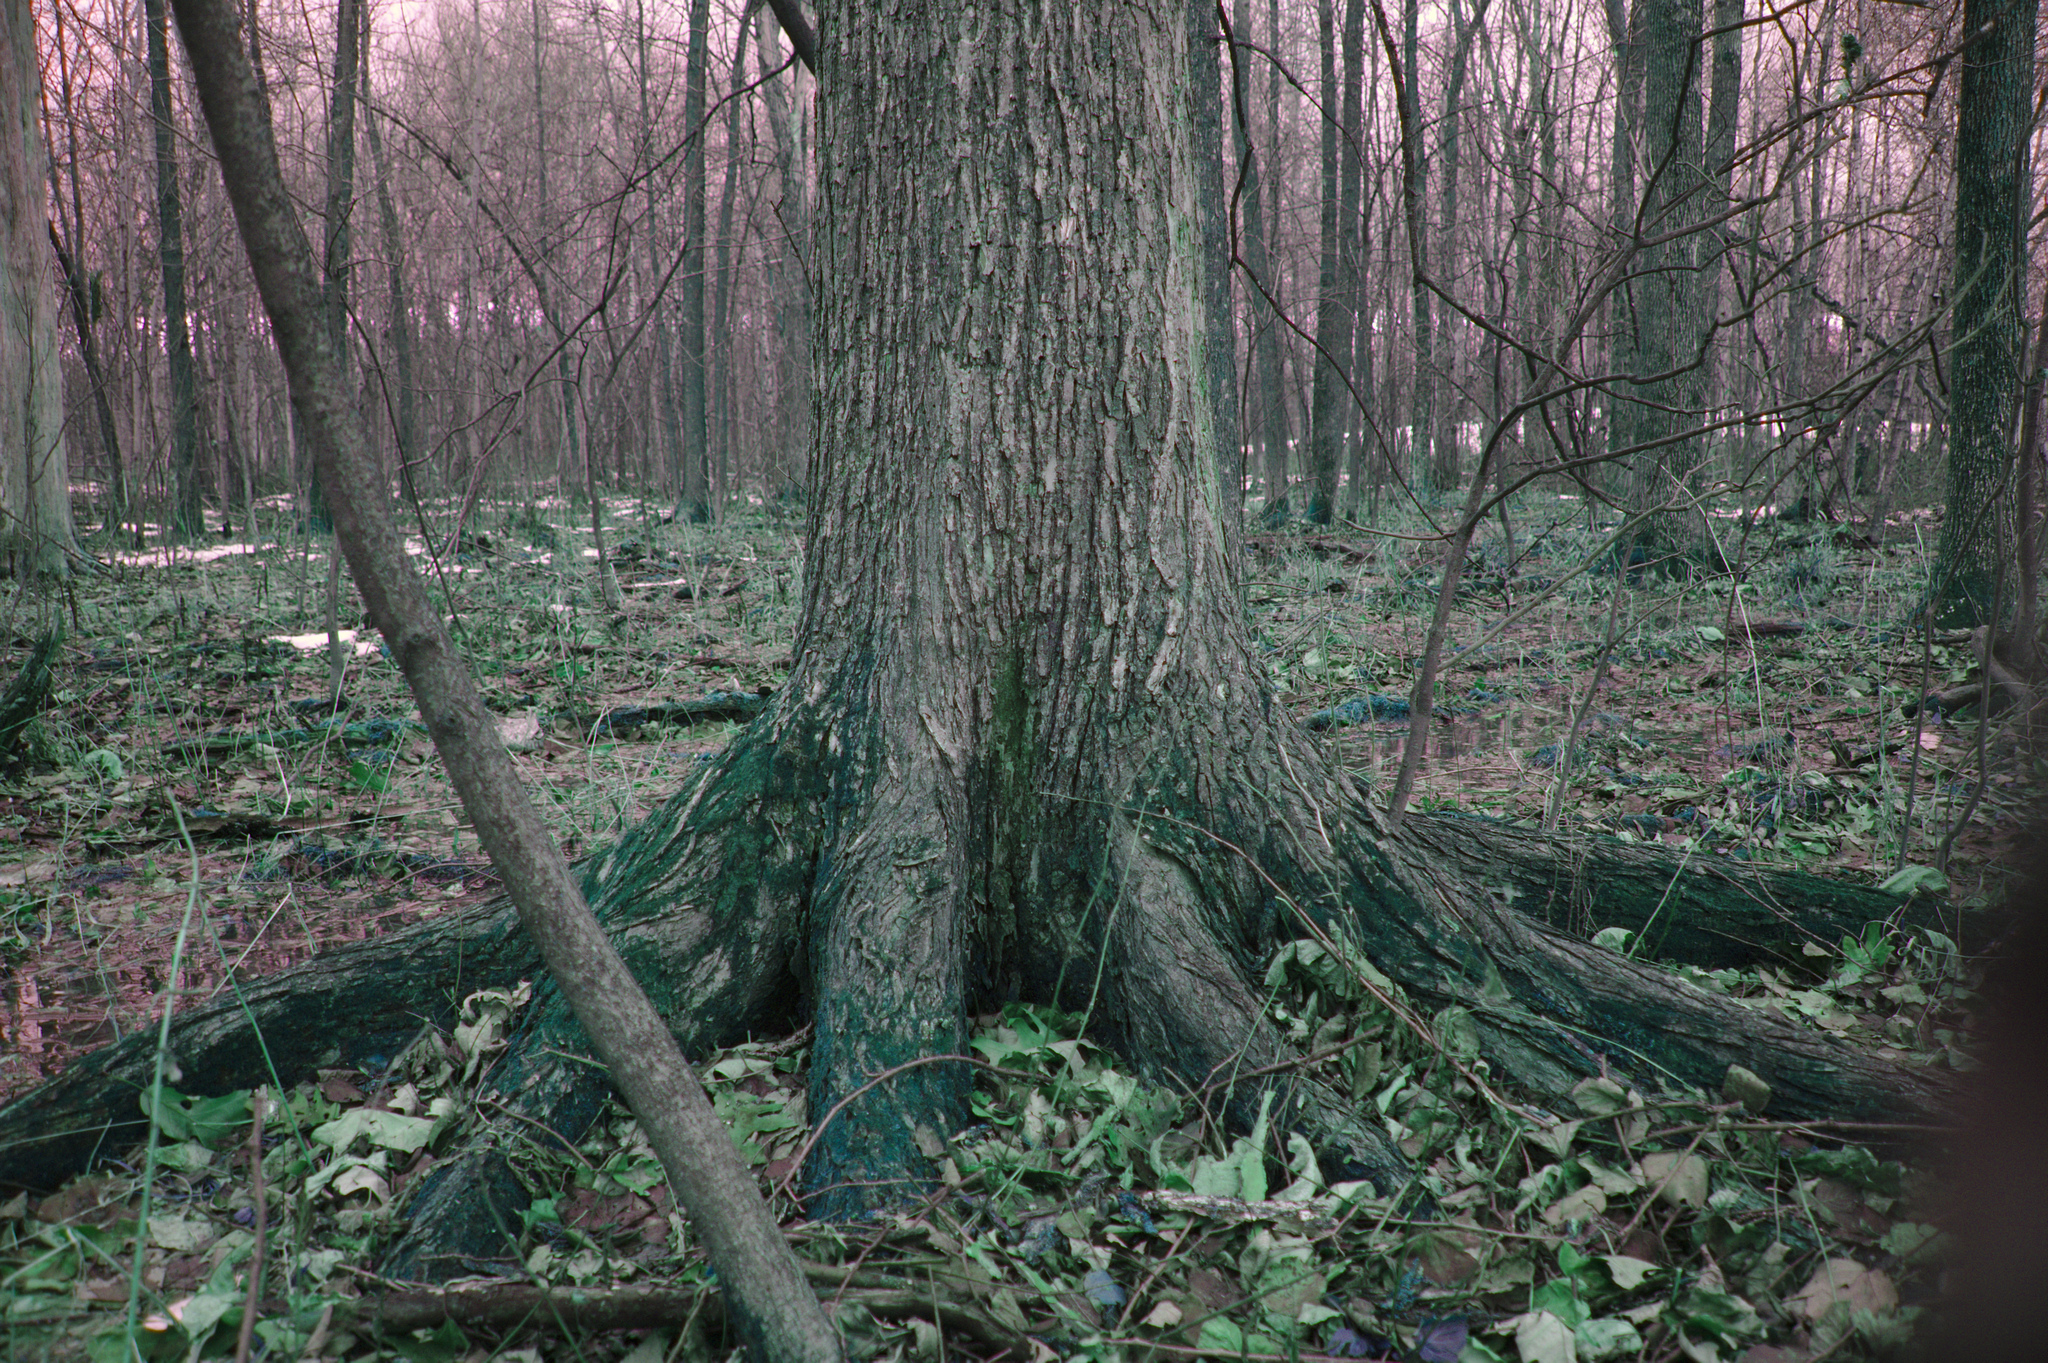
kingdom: Plantae
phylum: Tracheophyta
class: Magnoliopsida
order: Rosales
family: Ulmaceae
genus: Ulmus
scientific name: Ulmus americana
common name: American elm
